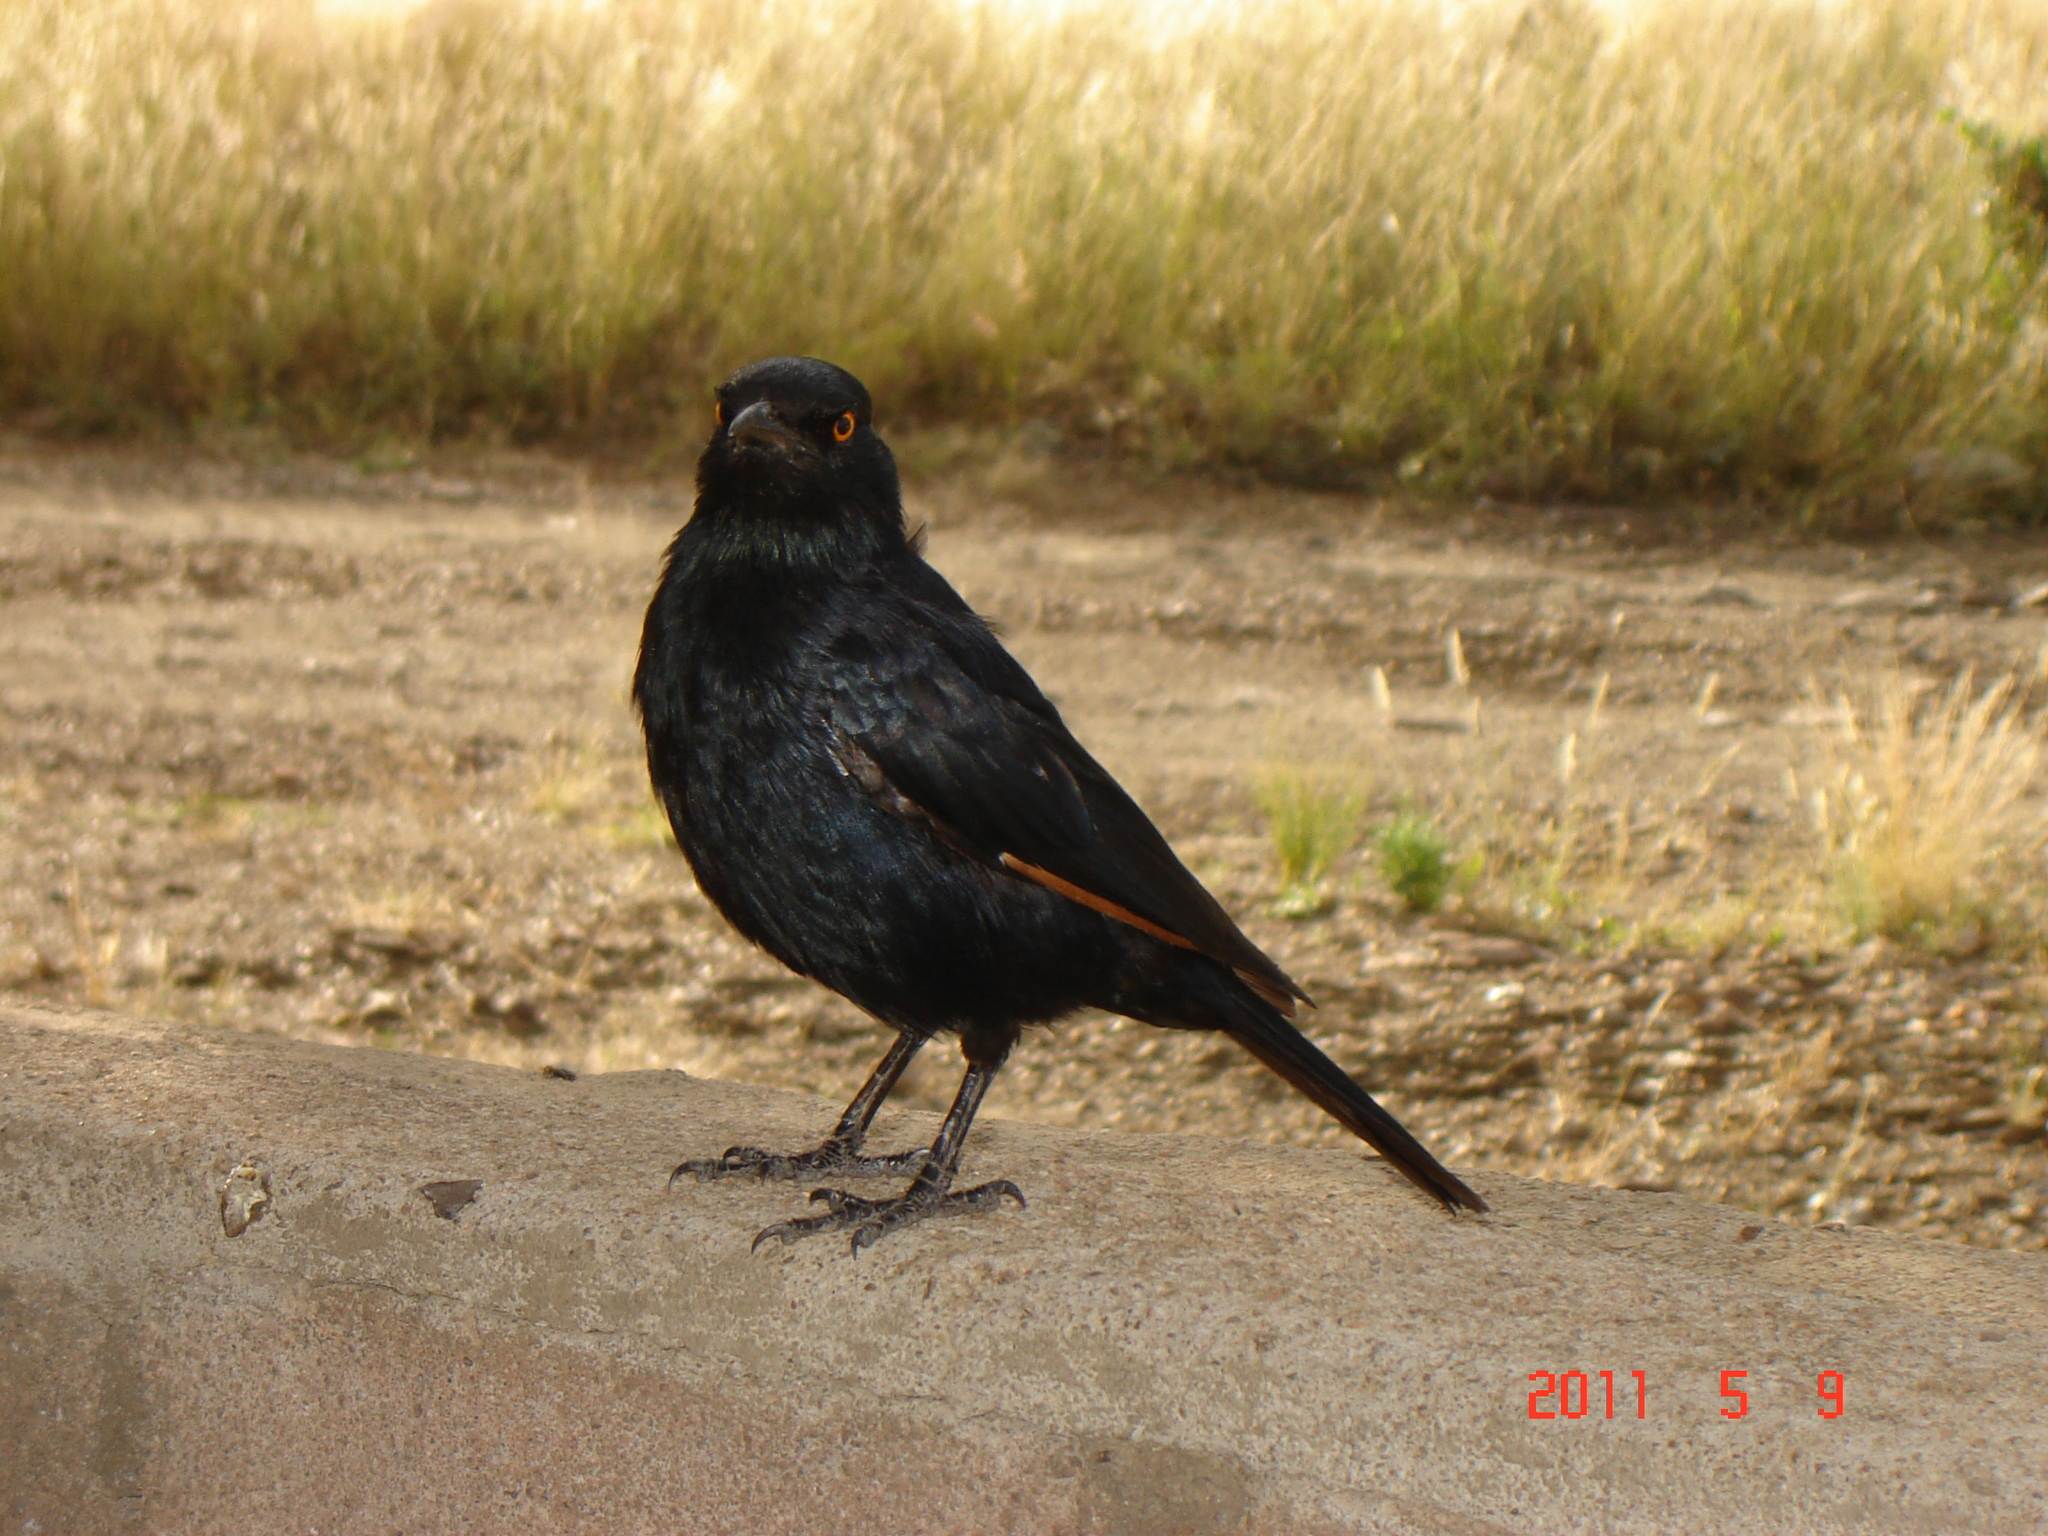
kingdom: Animalia
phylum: Chordata
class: Aves
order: Passeriformes
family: Sturnidae
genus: Onychognathus
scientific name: Onychognathus nabouroup
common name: Pale-winged starling
